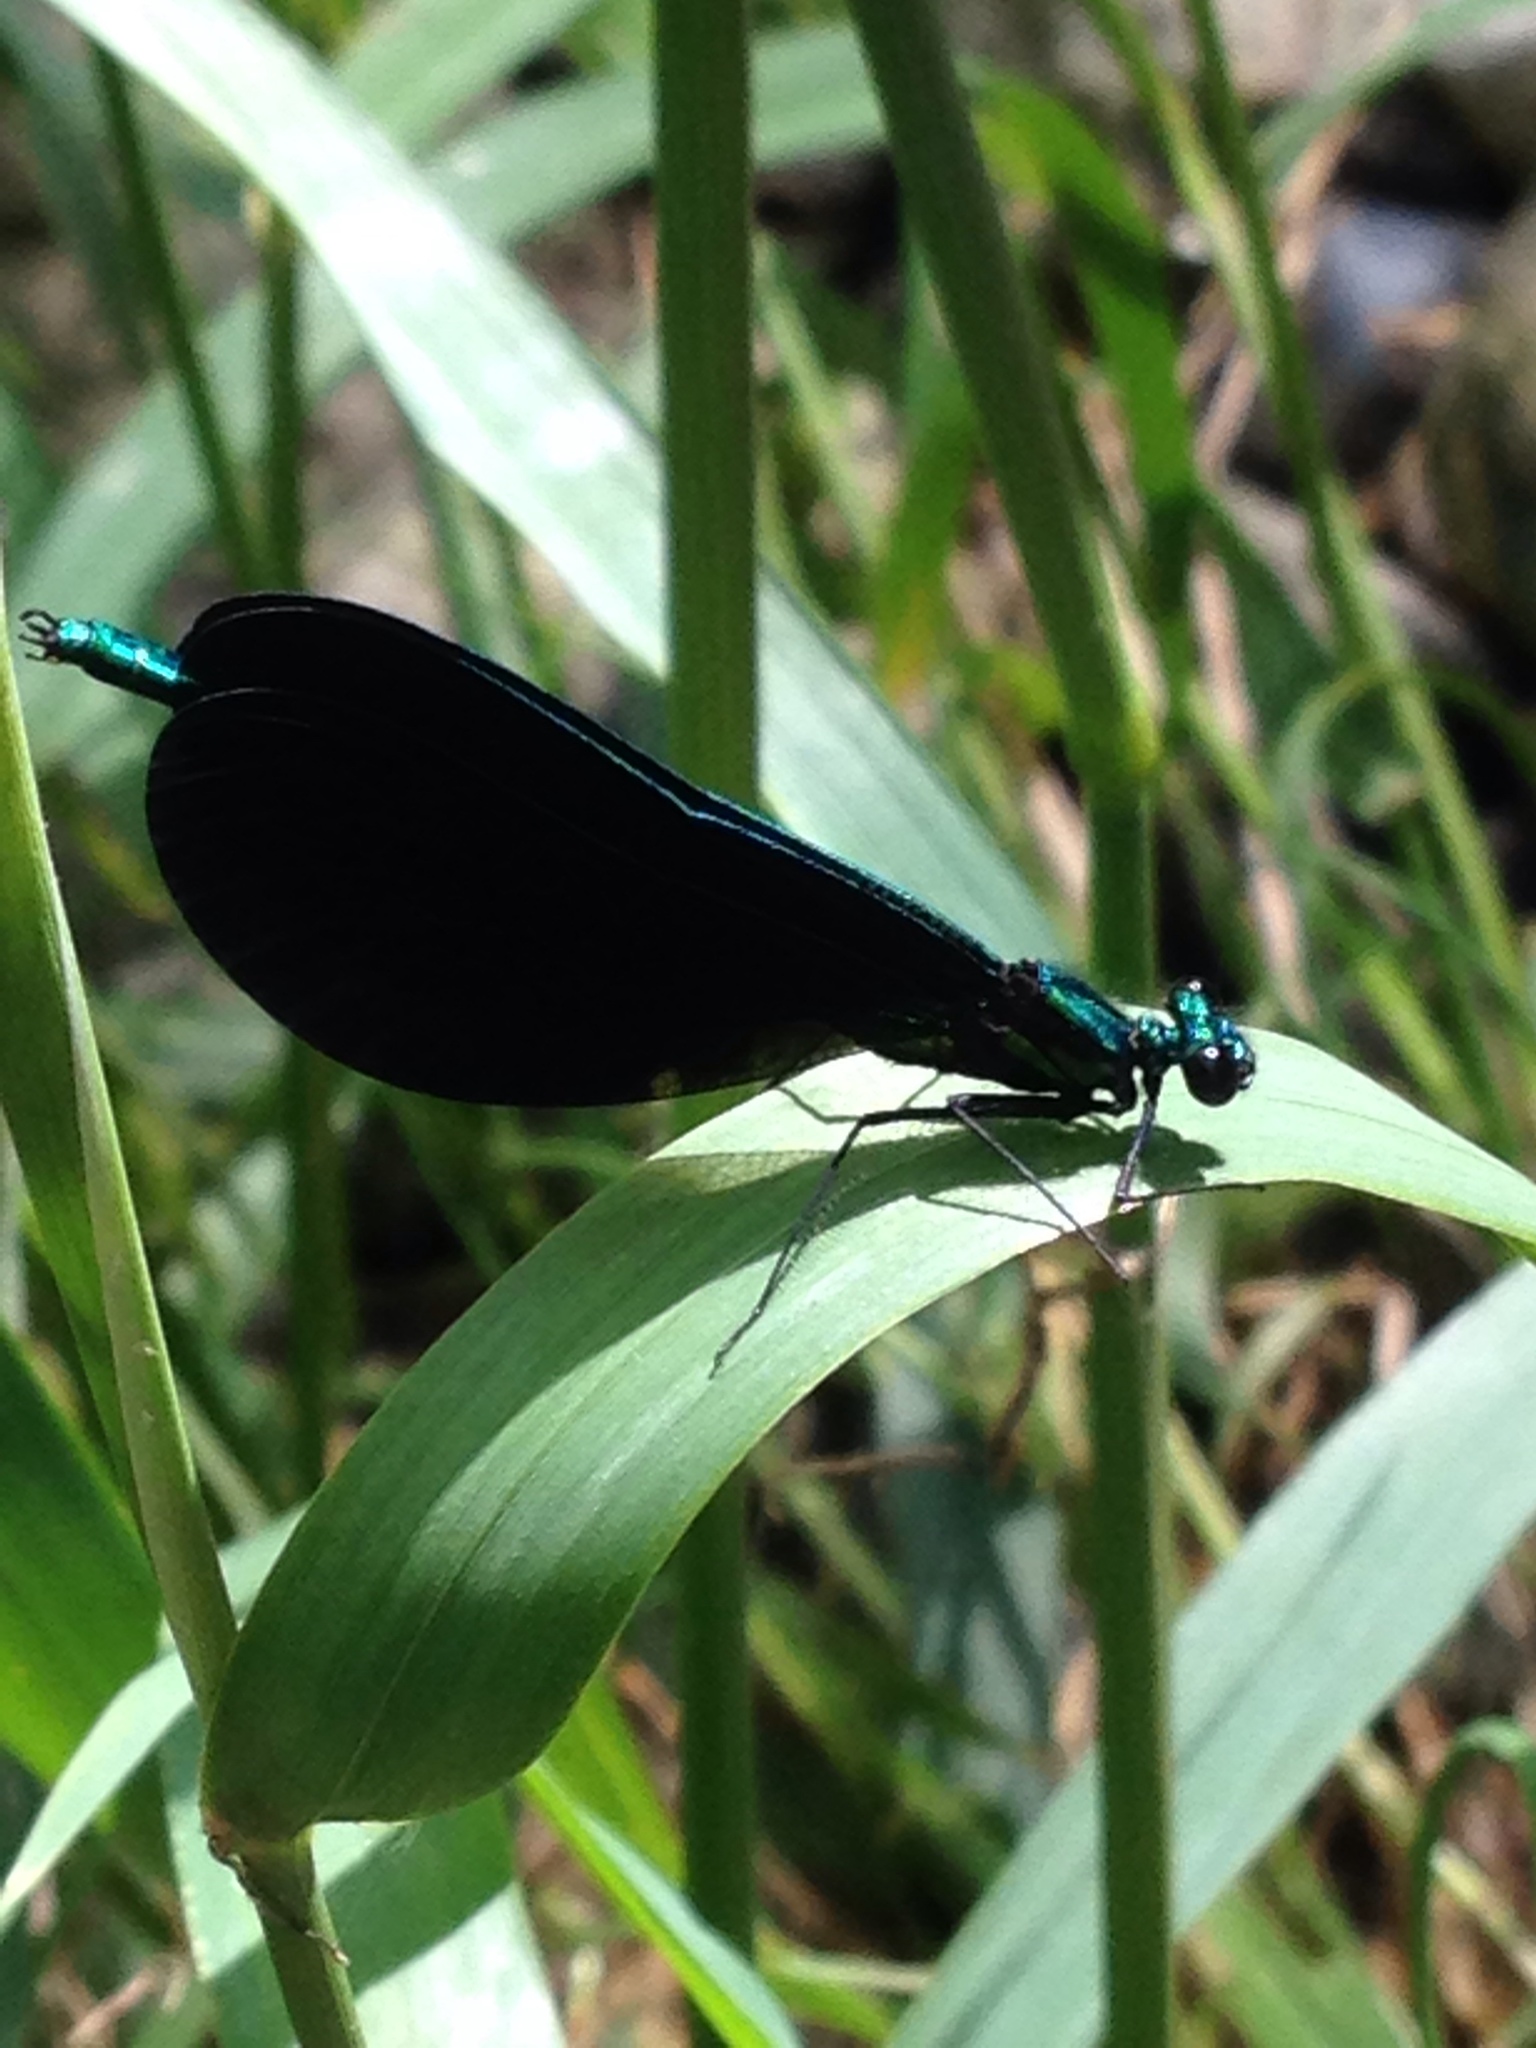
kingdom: Animalia
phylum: Arthropoda
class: Insecta
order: Odonata
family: Calopterygidae
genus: Calopteryx
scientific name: Calopteryx maculata
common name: Ebony jewelwing
